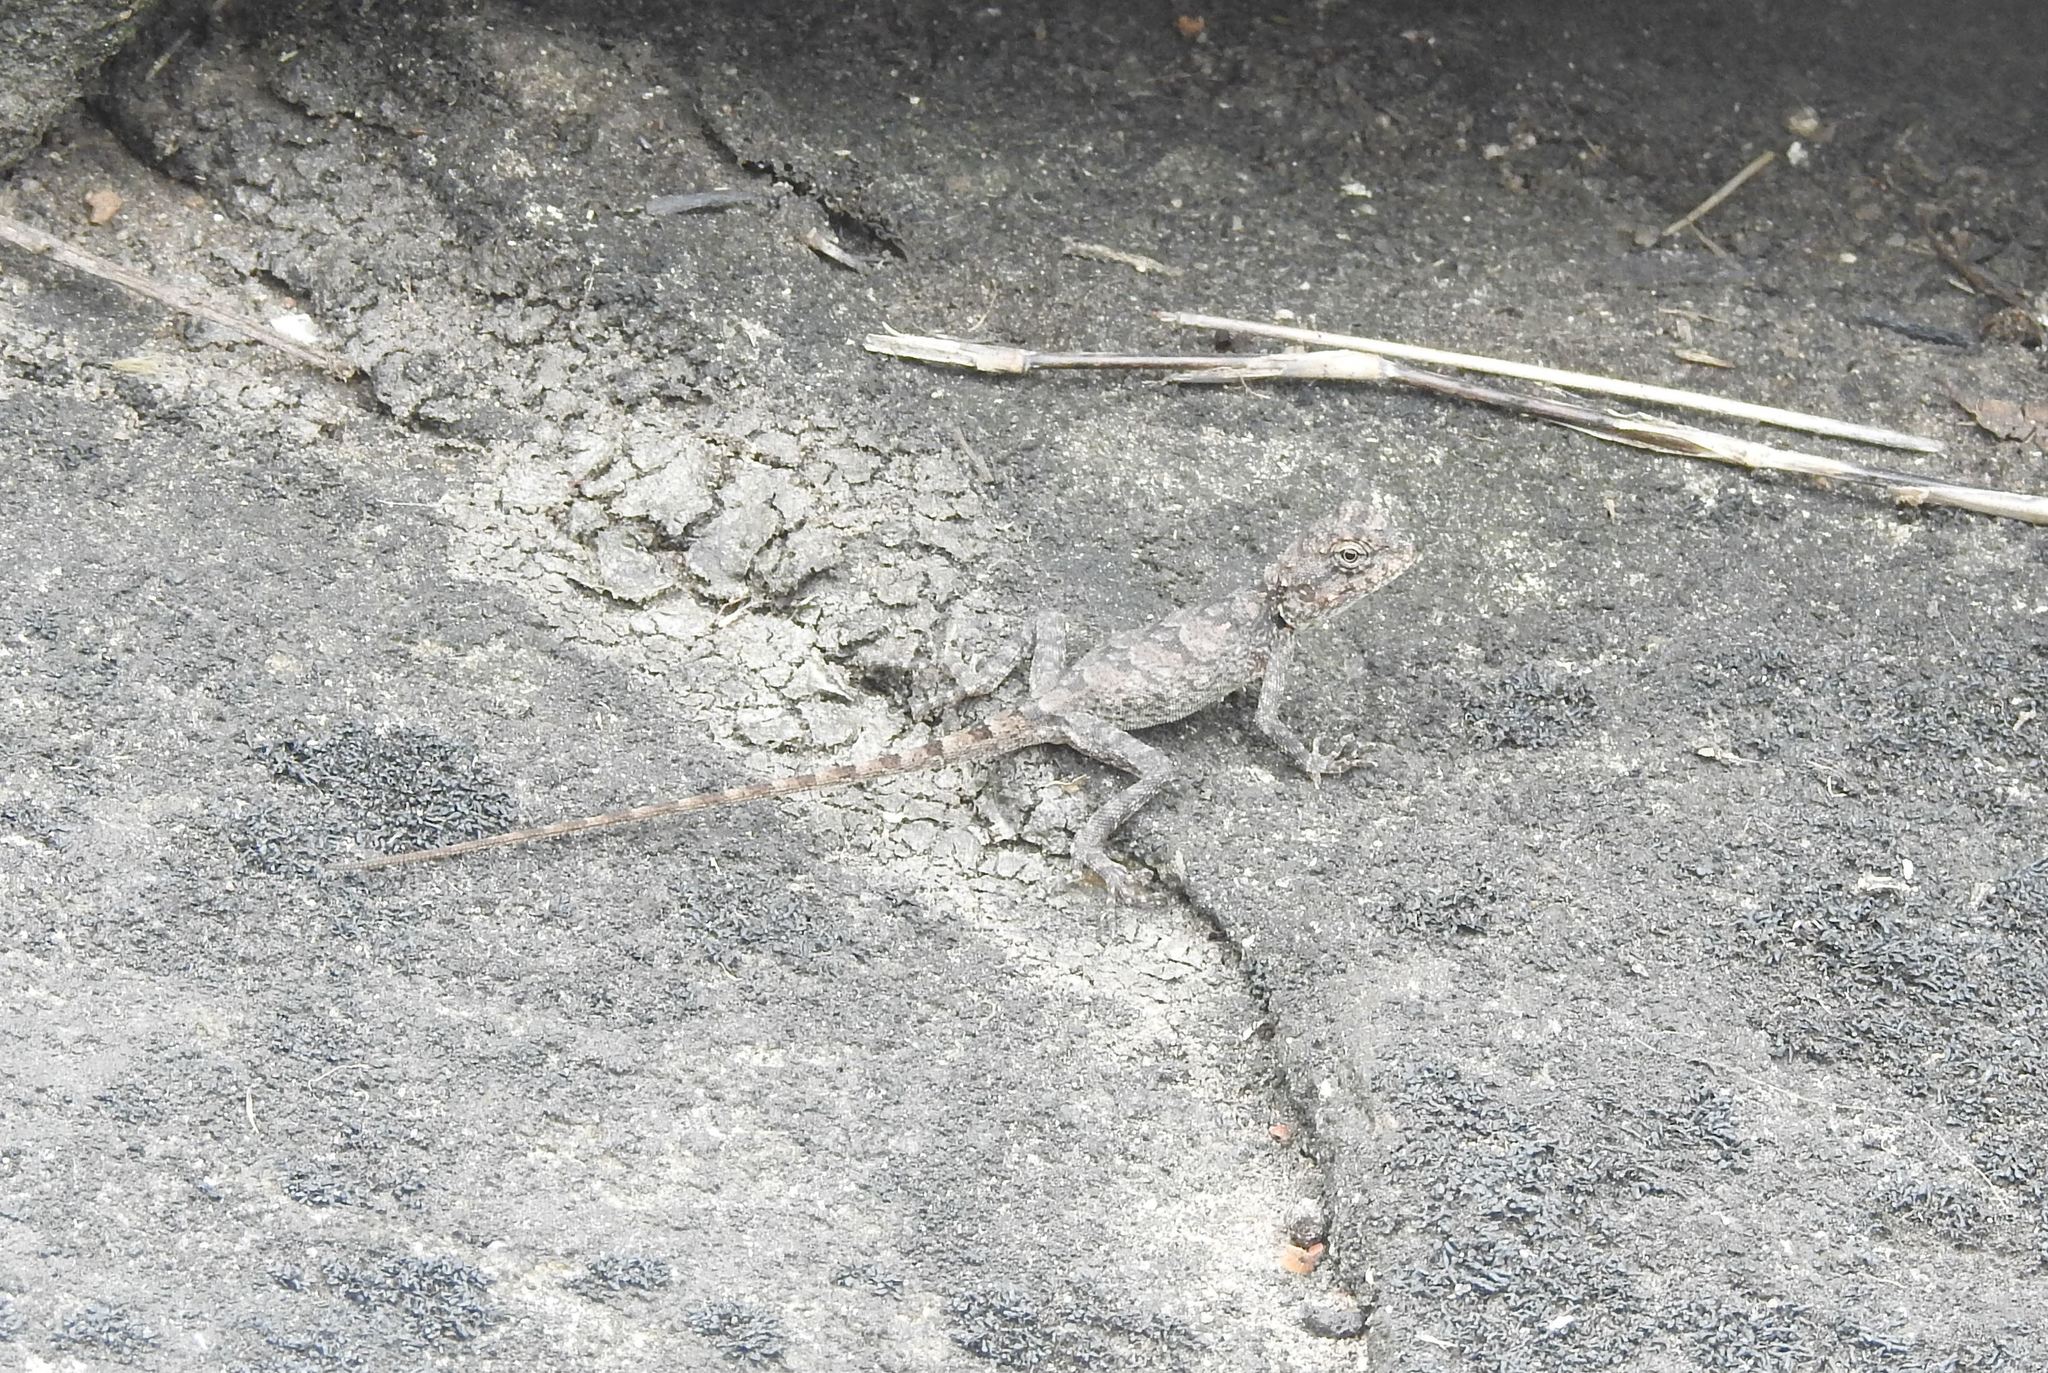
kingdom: Animalia
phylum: Chordata
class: Squamata
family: Agamidae
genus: Psammophilus
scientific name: Psammophilus dorsalis
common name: South indian rock agama
